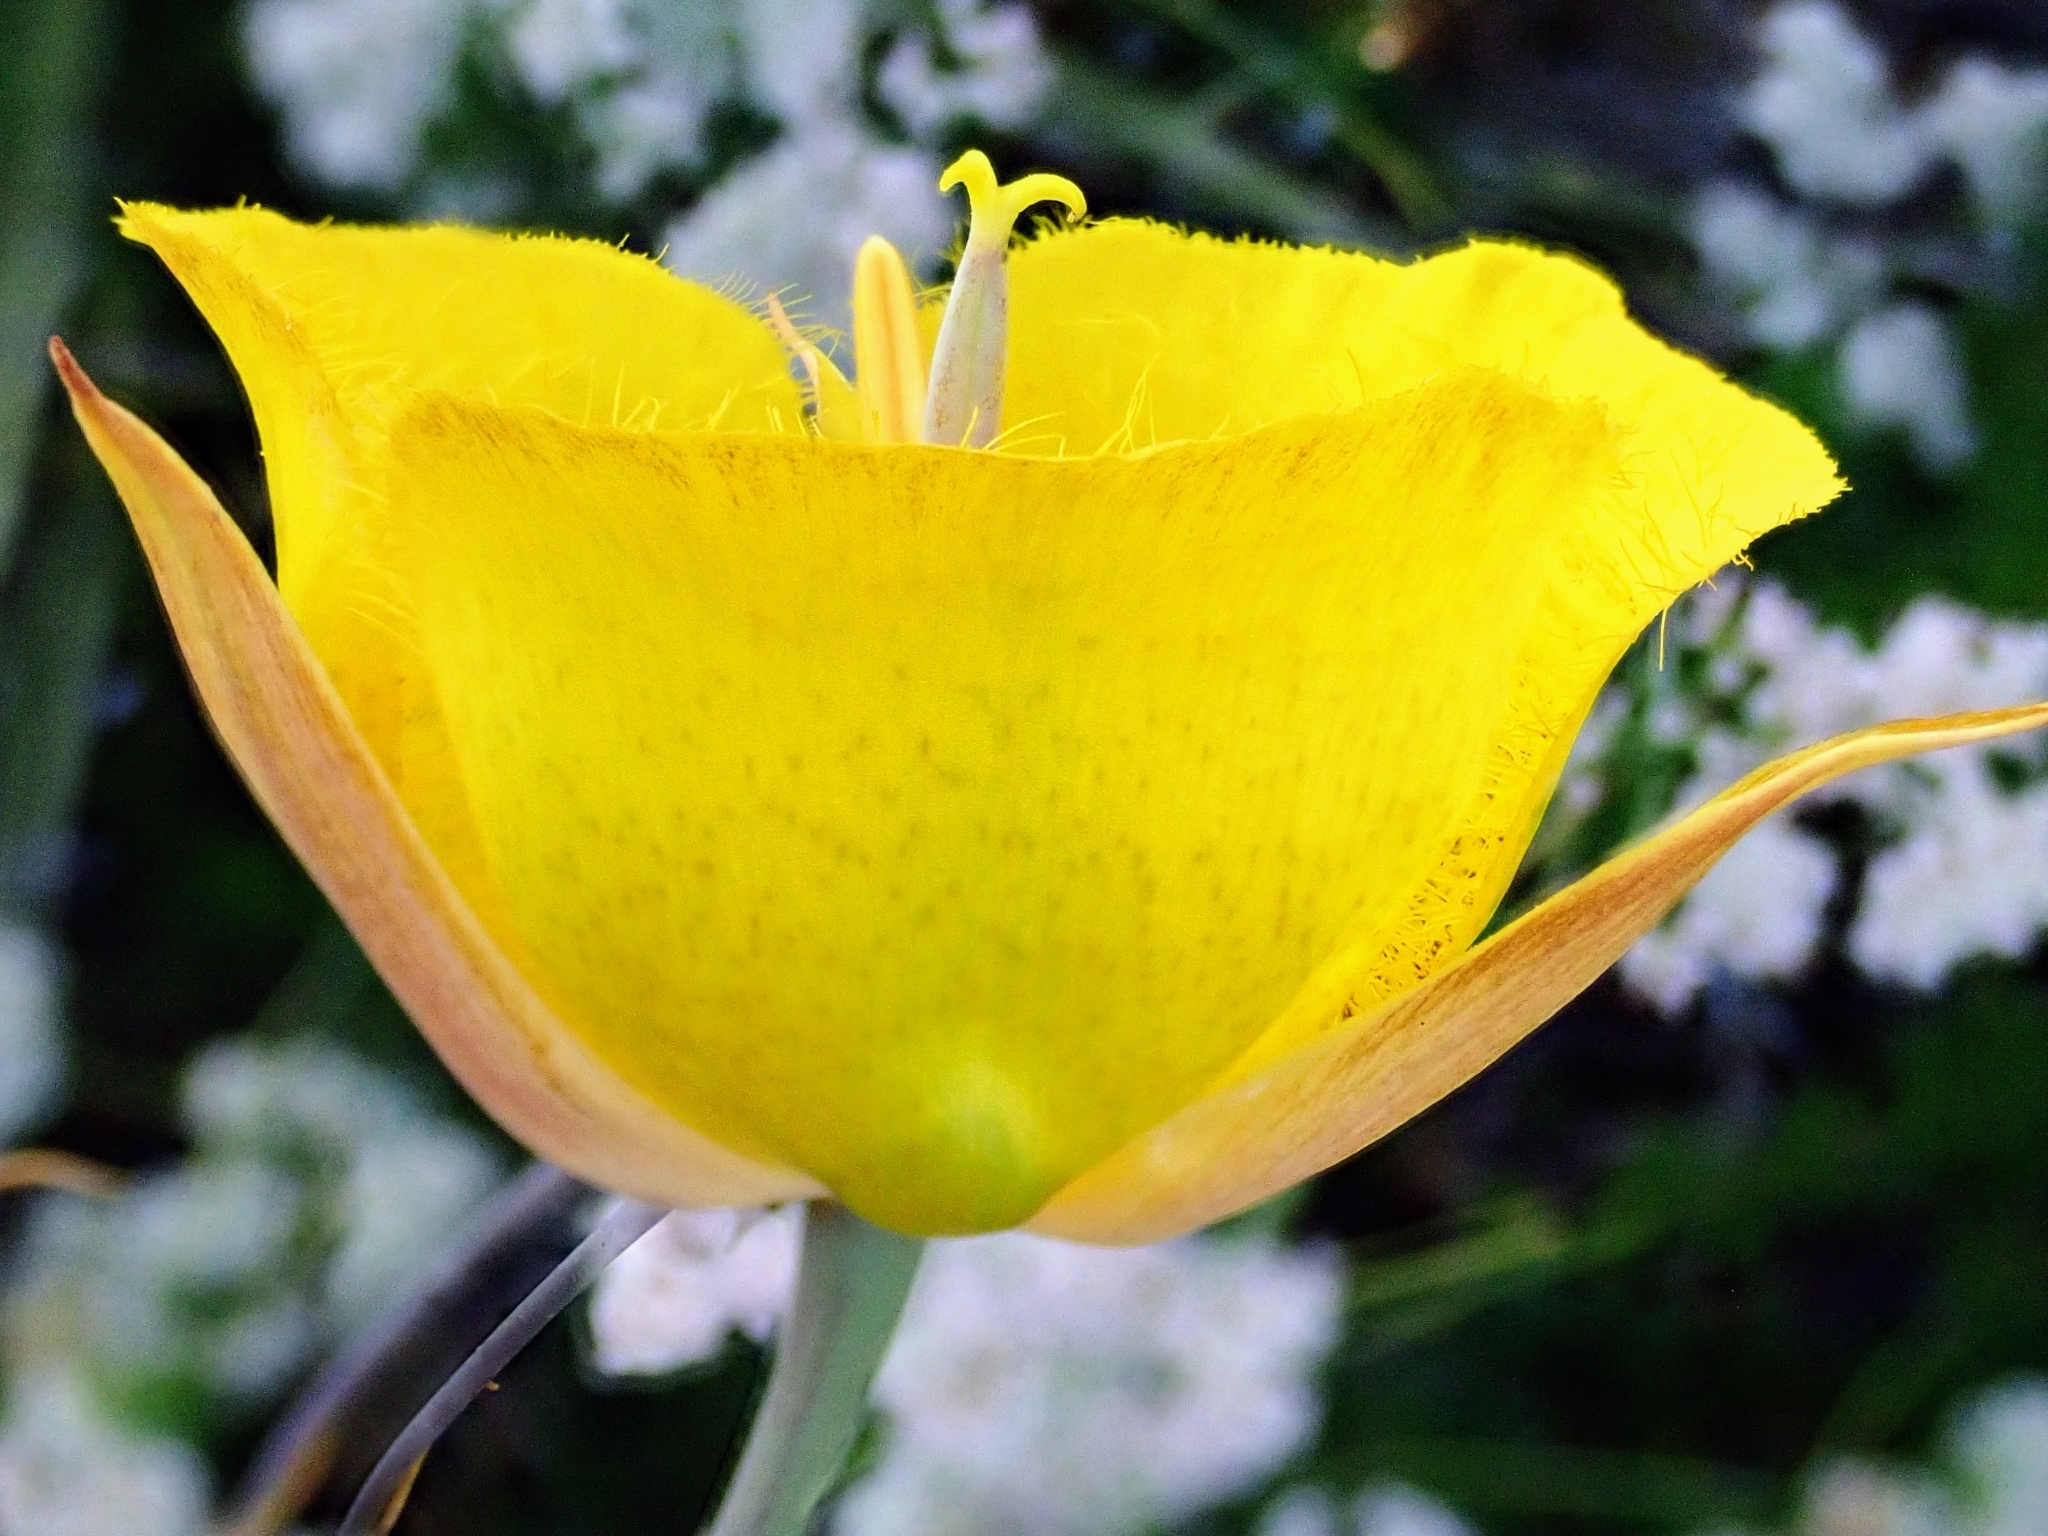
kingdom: Plantae
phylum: Tracheophyta
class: Liliopsida
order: Liliales
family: Liliaceae
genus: Calochortus
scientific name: Calochortus weedii
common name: Weed's mariposa-lily
